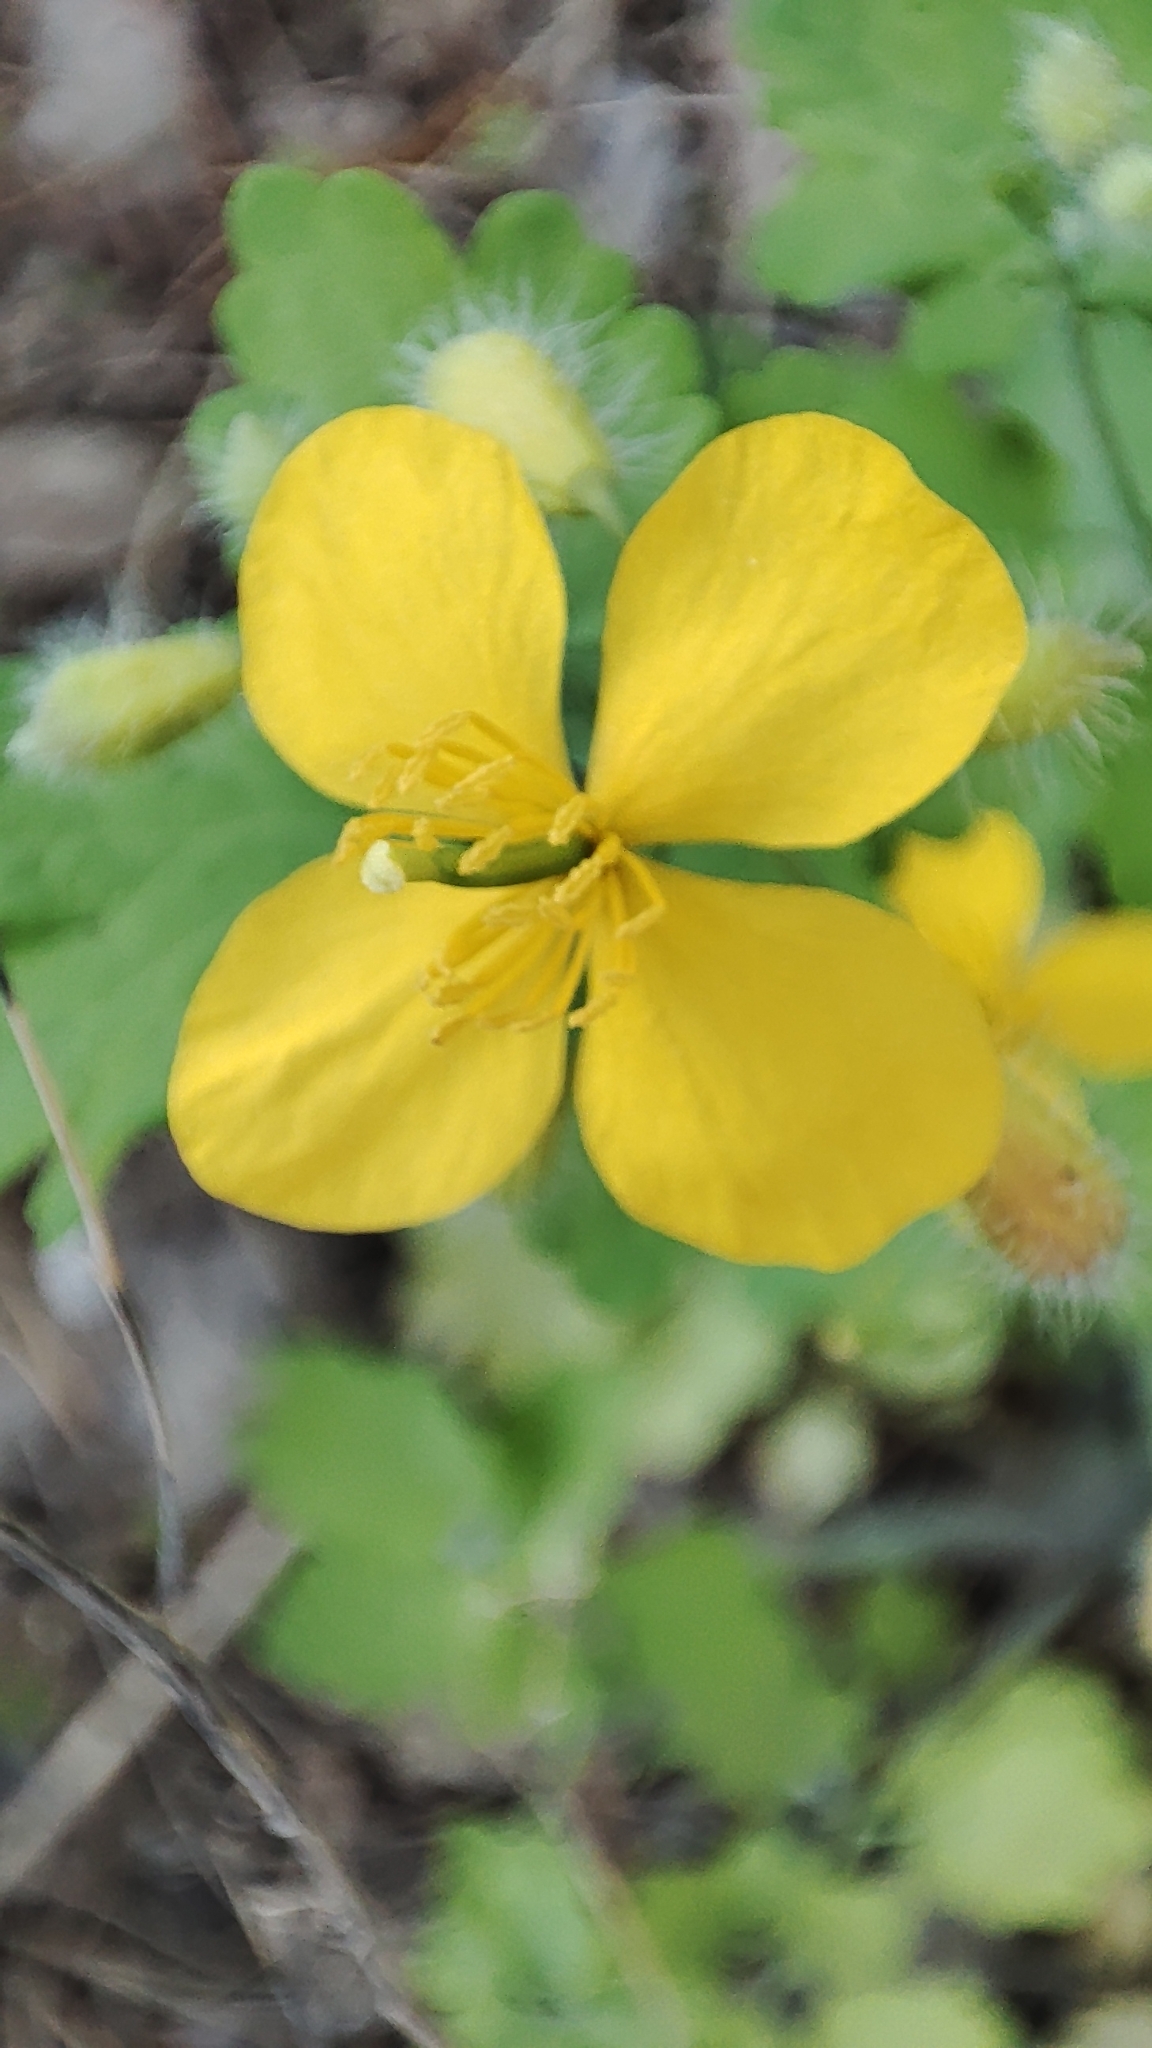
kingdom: Plantae
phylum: Tracheophyta
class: Magnoliopsida
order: Ranunculales
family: Papaveraceae
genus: Chelidonium
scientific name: Chelidonium majus
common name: Greater celandine
